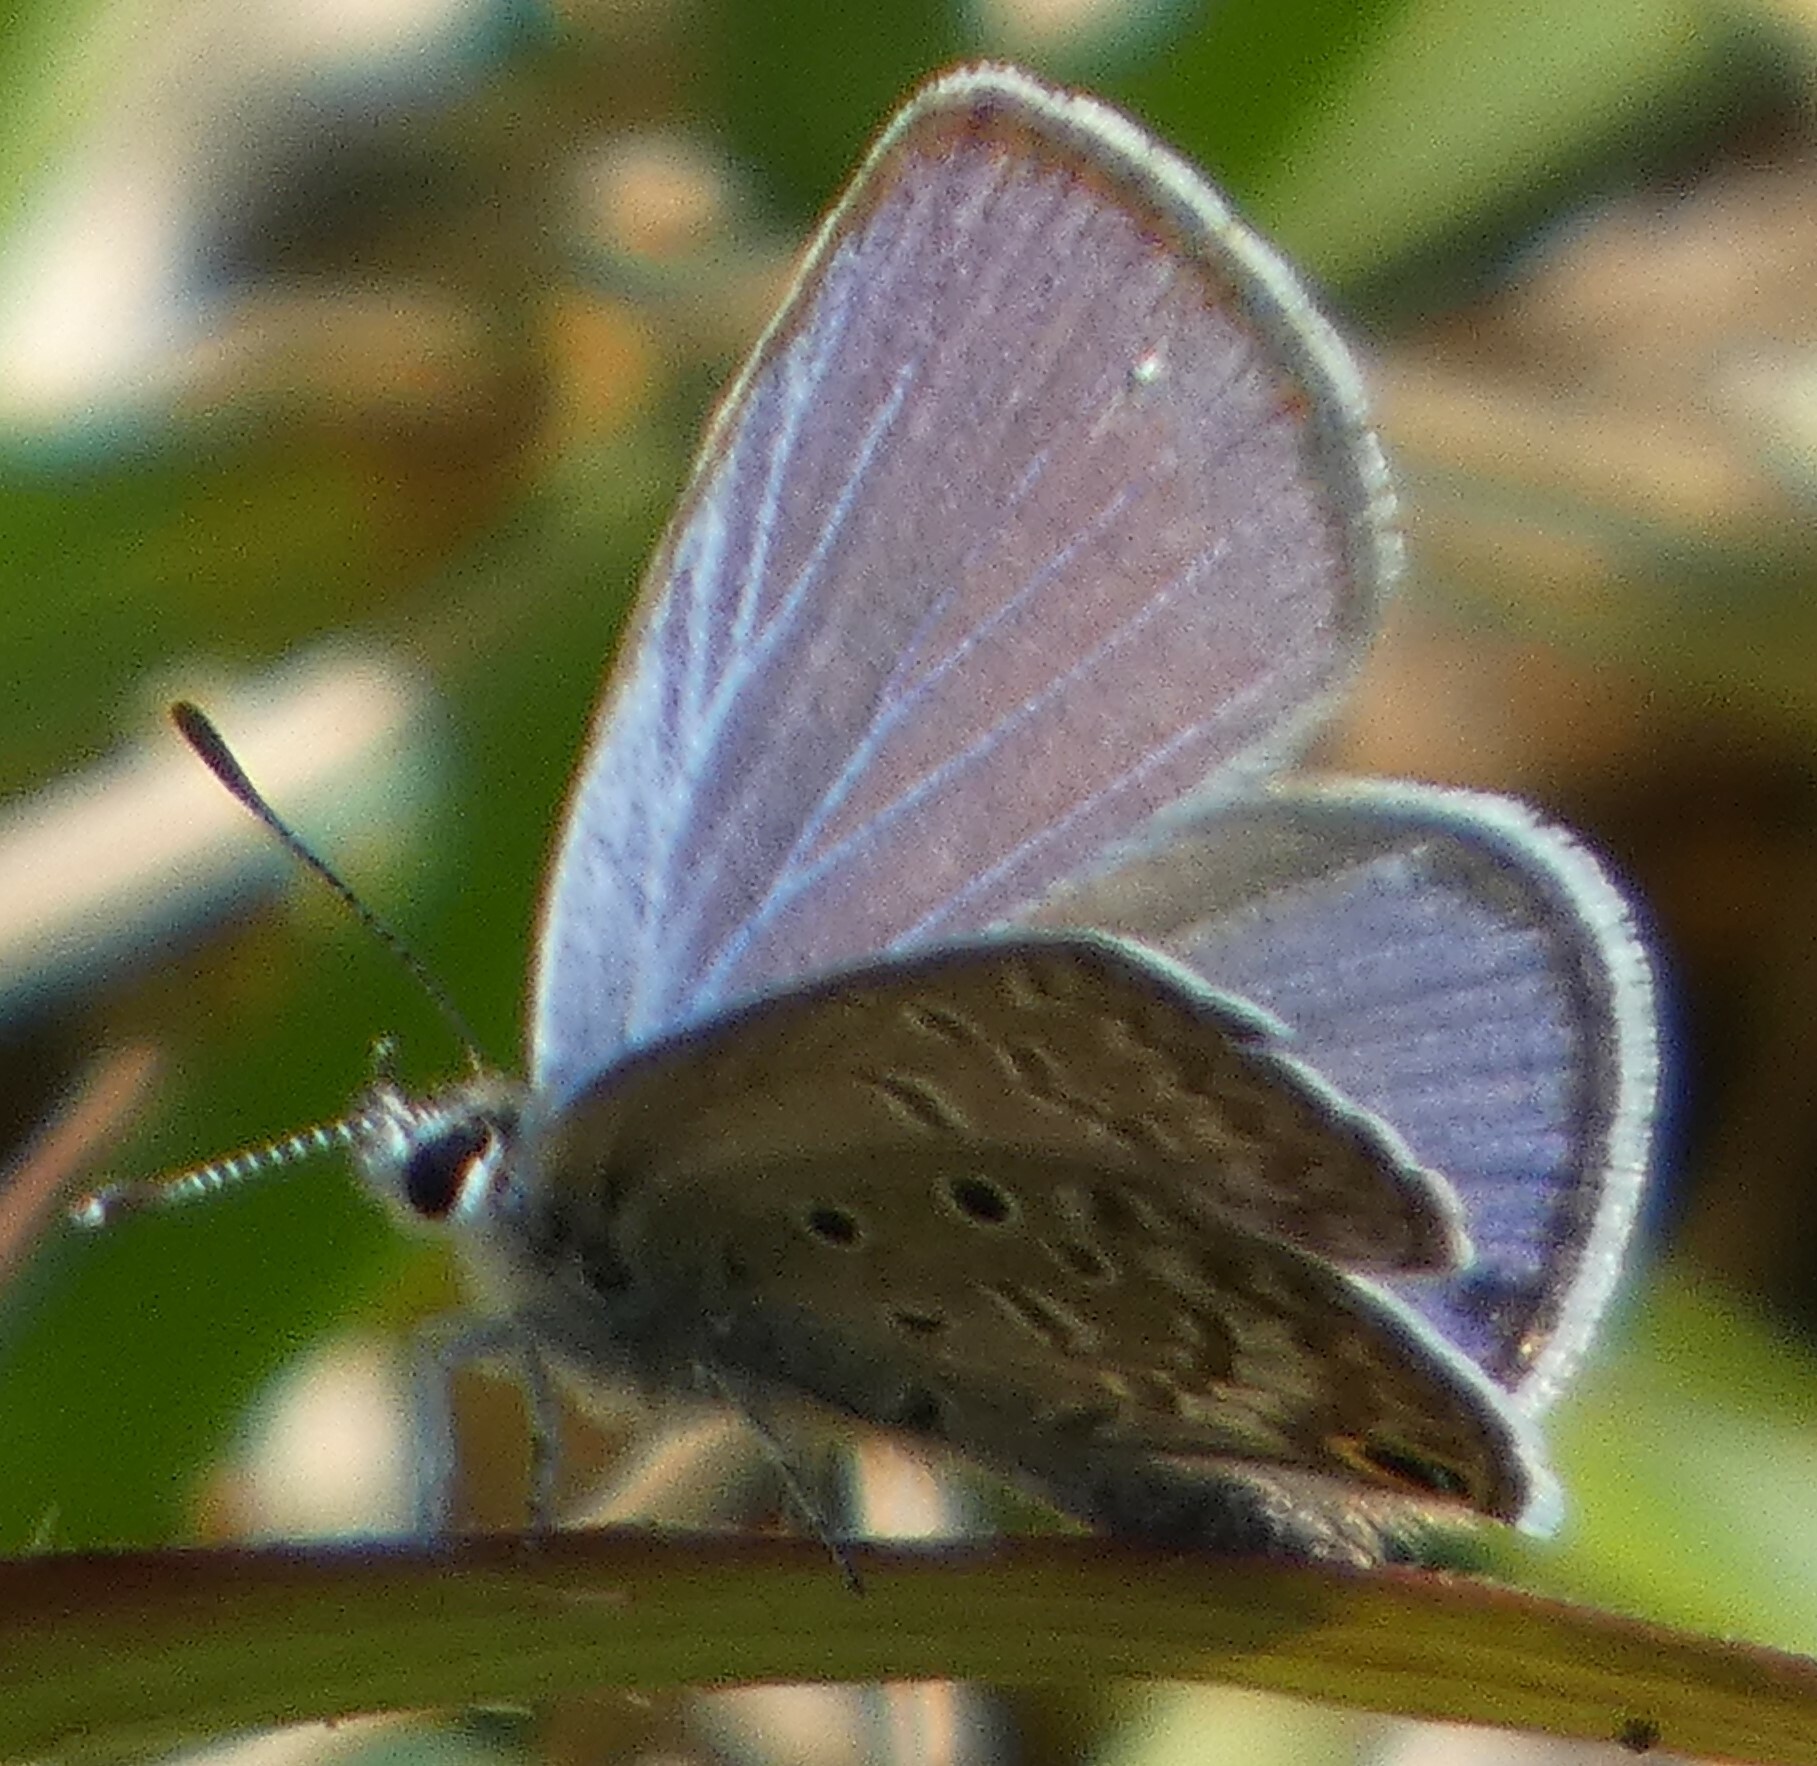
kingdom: Animalia
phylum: Arthropoda
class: Insecta
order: Lepidoptera
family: Lycaenidae
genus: Hemiargus
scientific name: Hemiargus ceraunus
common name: Ceraunus blue
